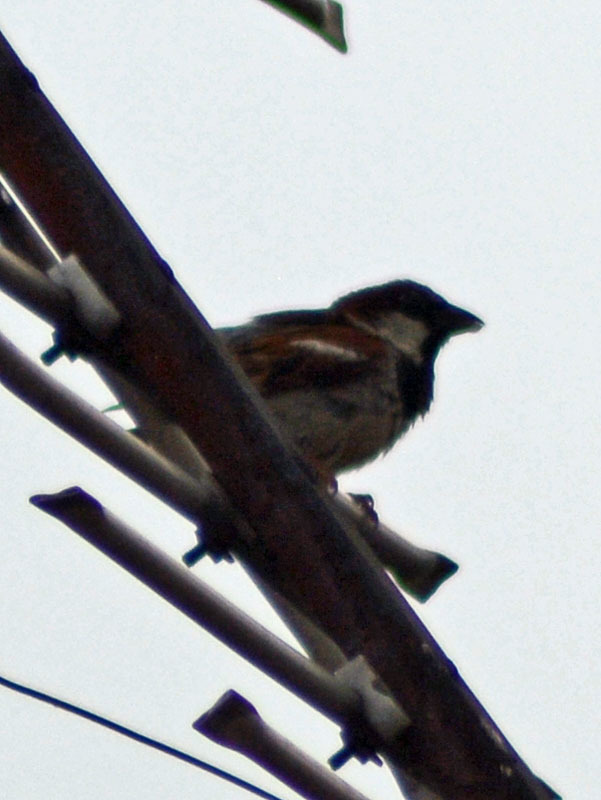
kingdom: Animalia
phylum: Chordata
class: Aves
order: Passeriformes
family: Passeridae
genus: Passer
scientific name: Passer domesticus
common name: House sparrow
